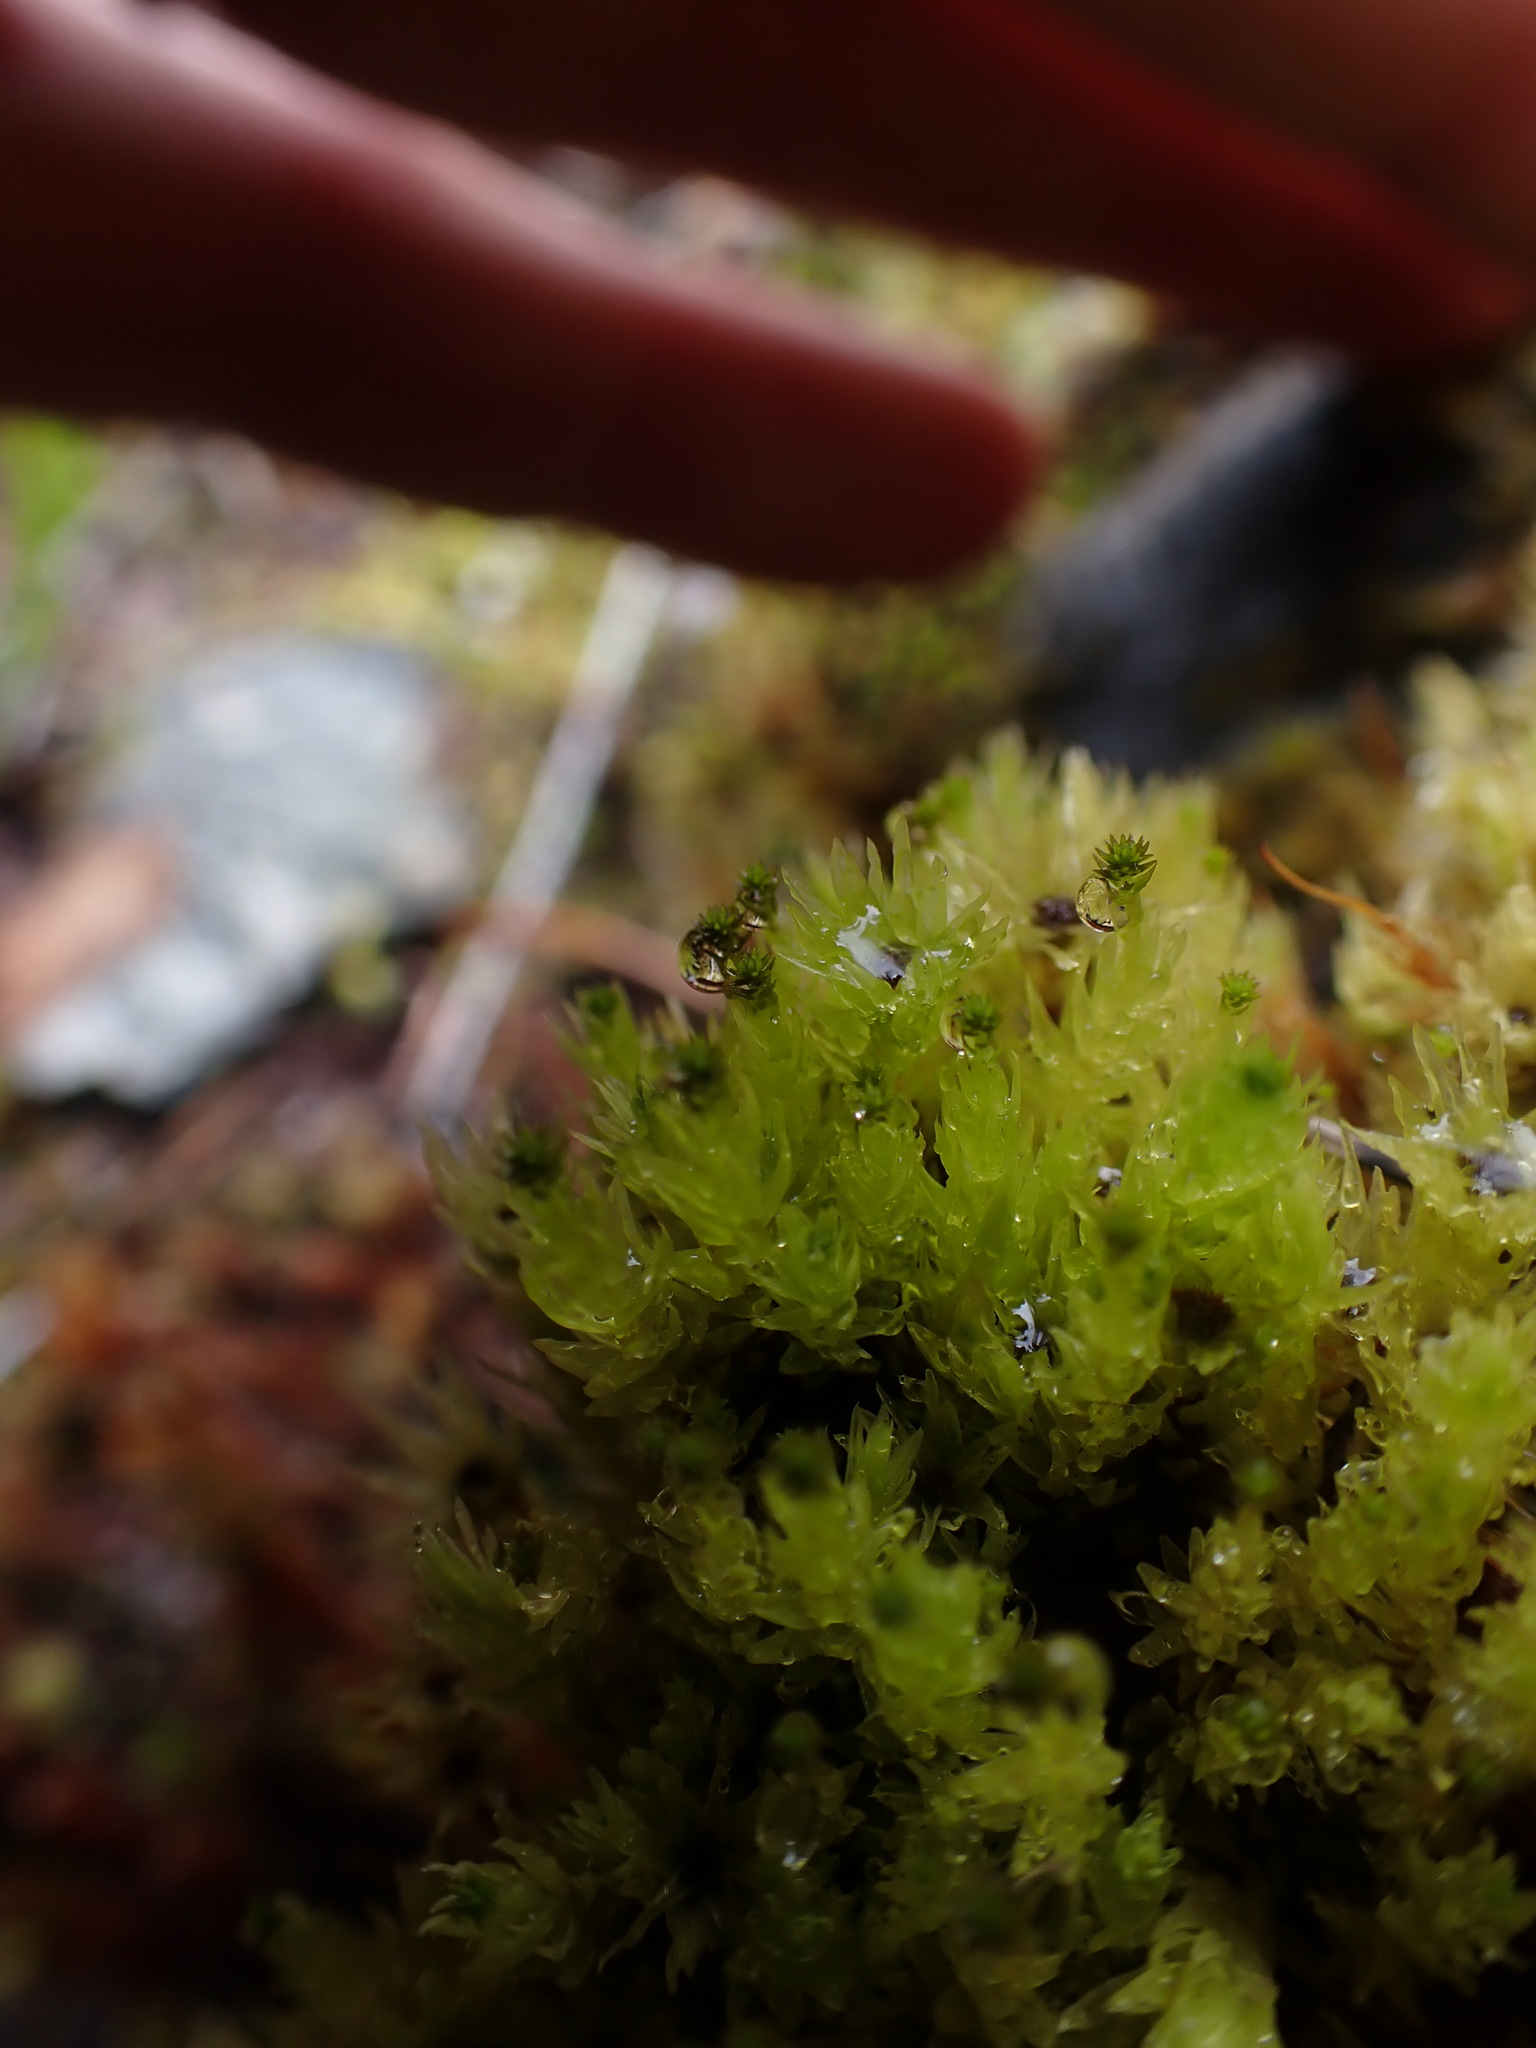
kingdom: Plantae
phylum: Bryophyta
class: Bryopsida
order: Aulacomniales
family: Aulacomniaceae
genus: Aulacomnium
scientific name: Aulacomnium palustre
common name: Bog groove-moss
